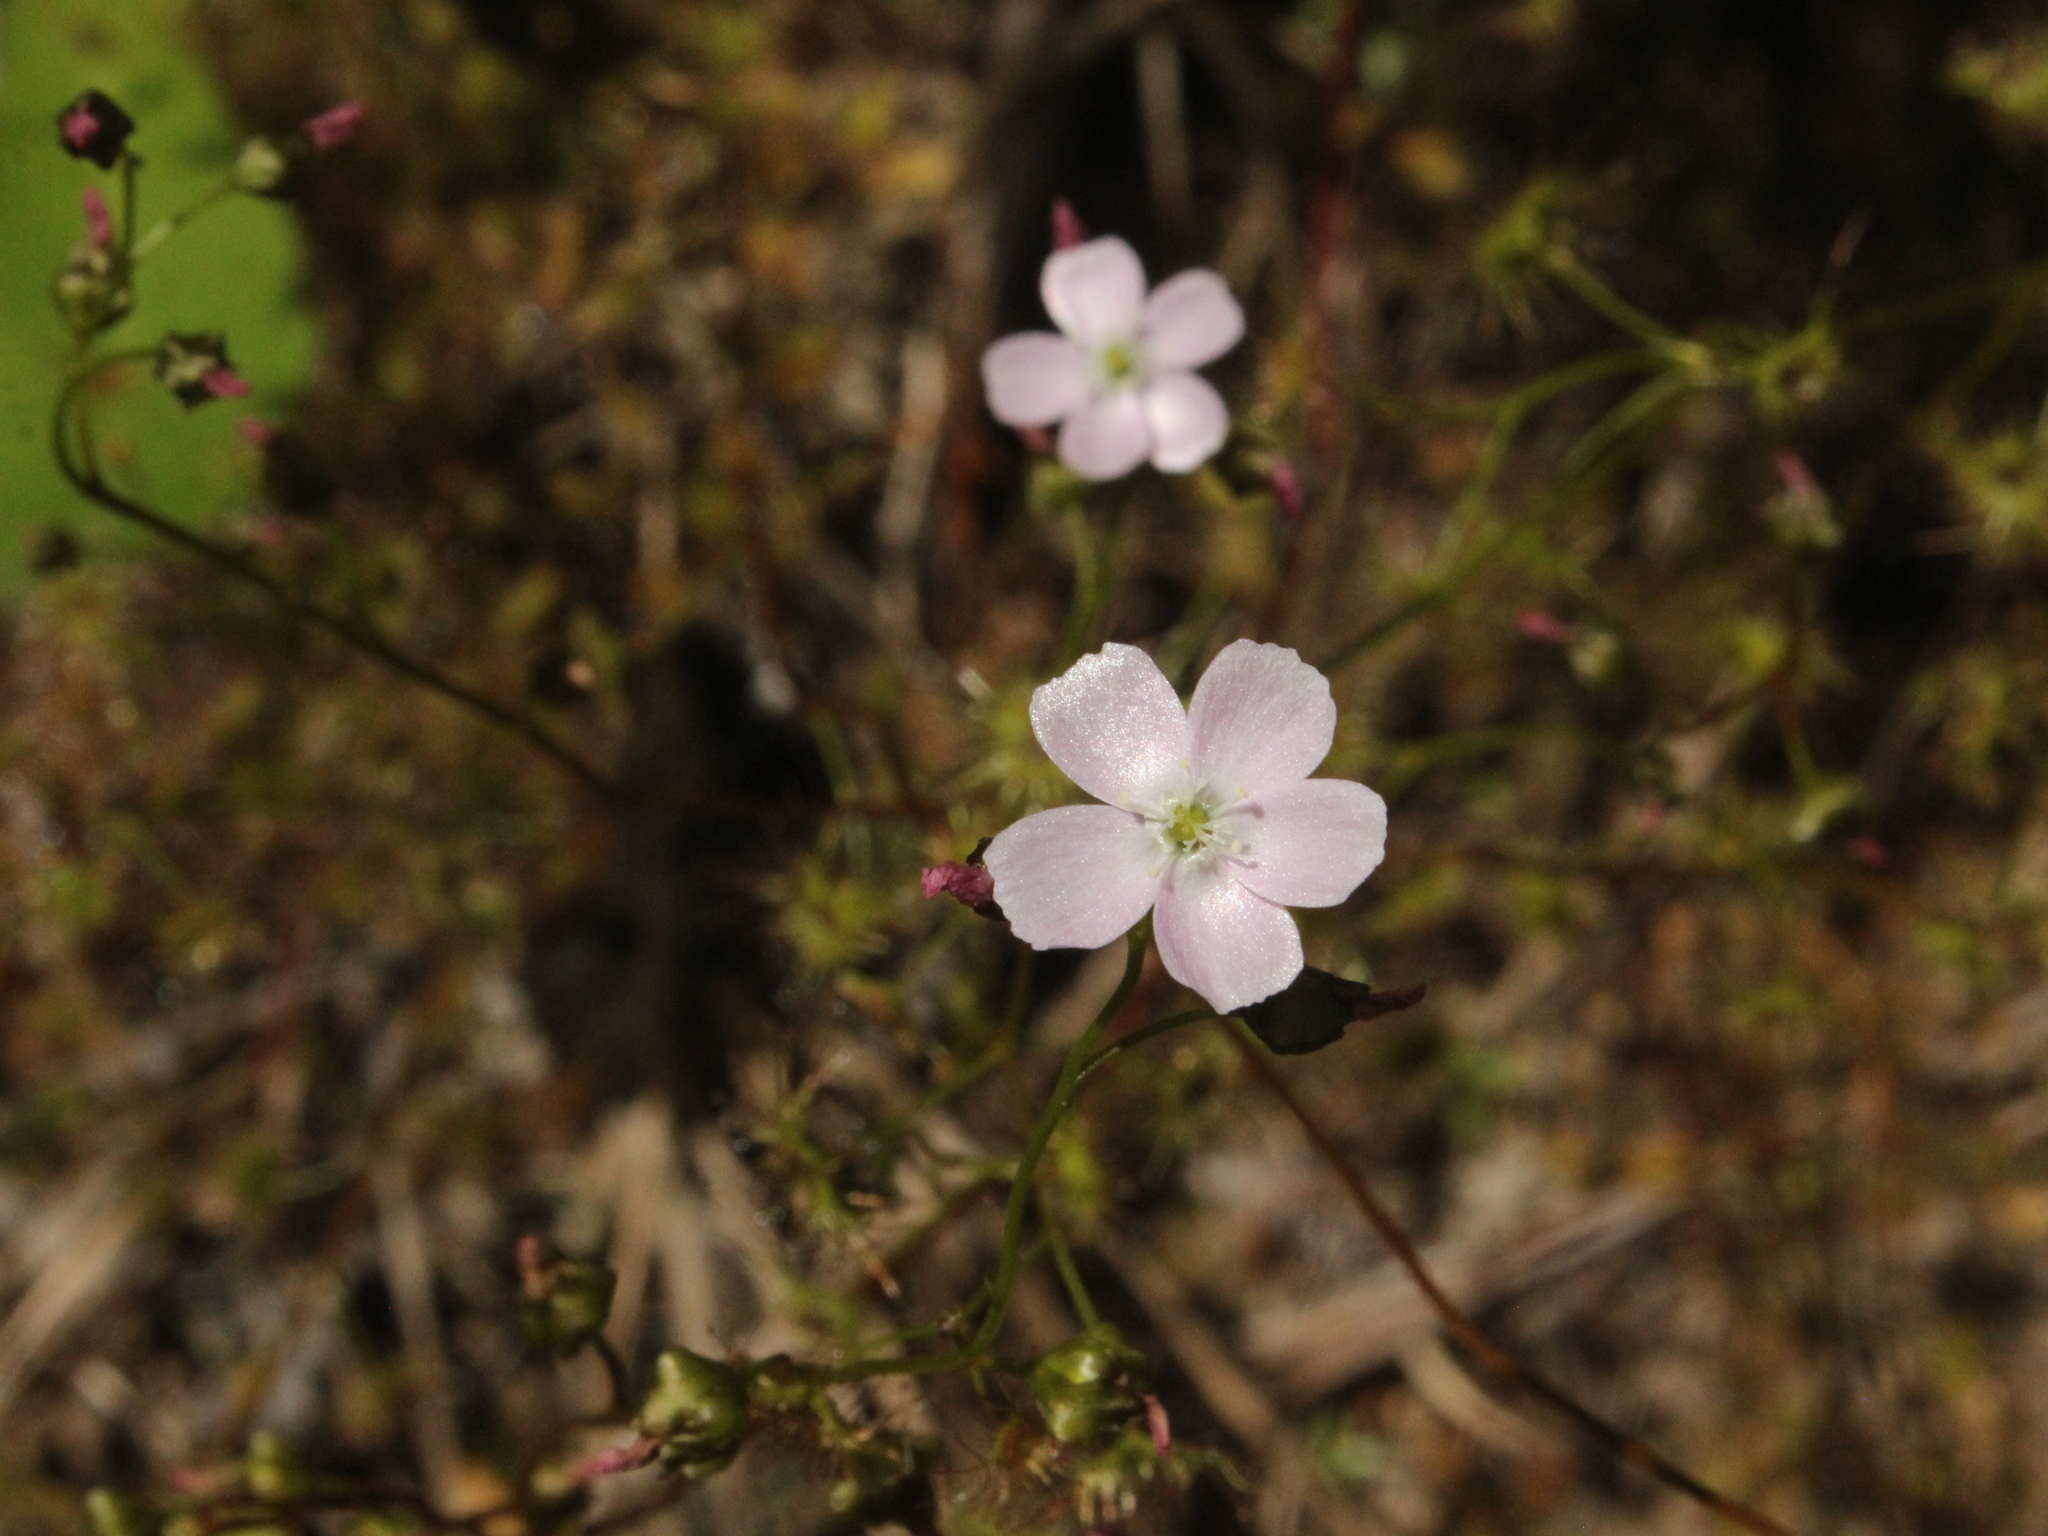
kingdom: Plantae
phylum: Tracheophyta
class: Magnoliopsida
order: Caryophyllales
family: Droseraceae
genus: Drosera
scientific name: Drosera peltata
